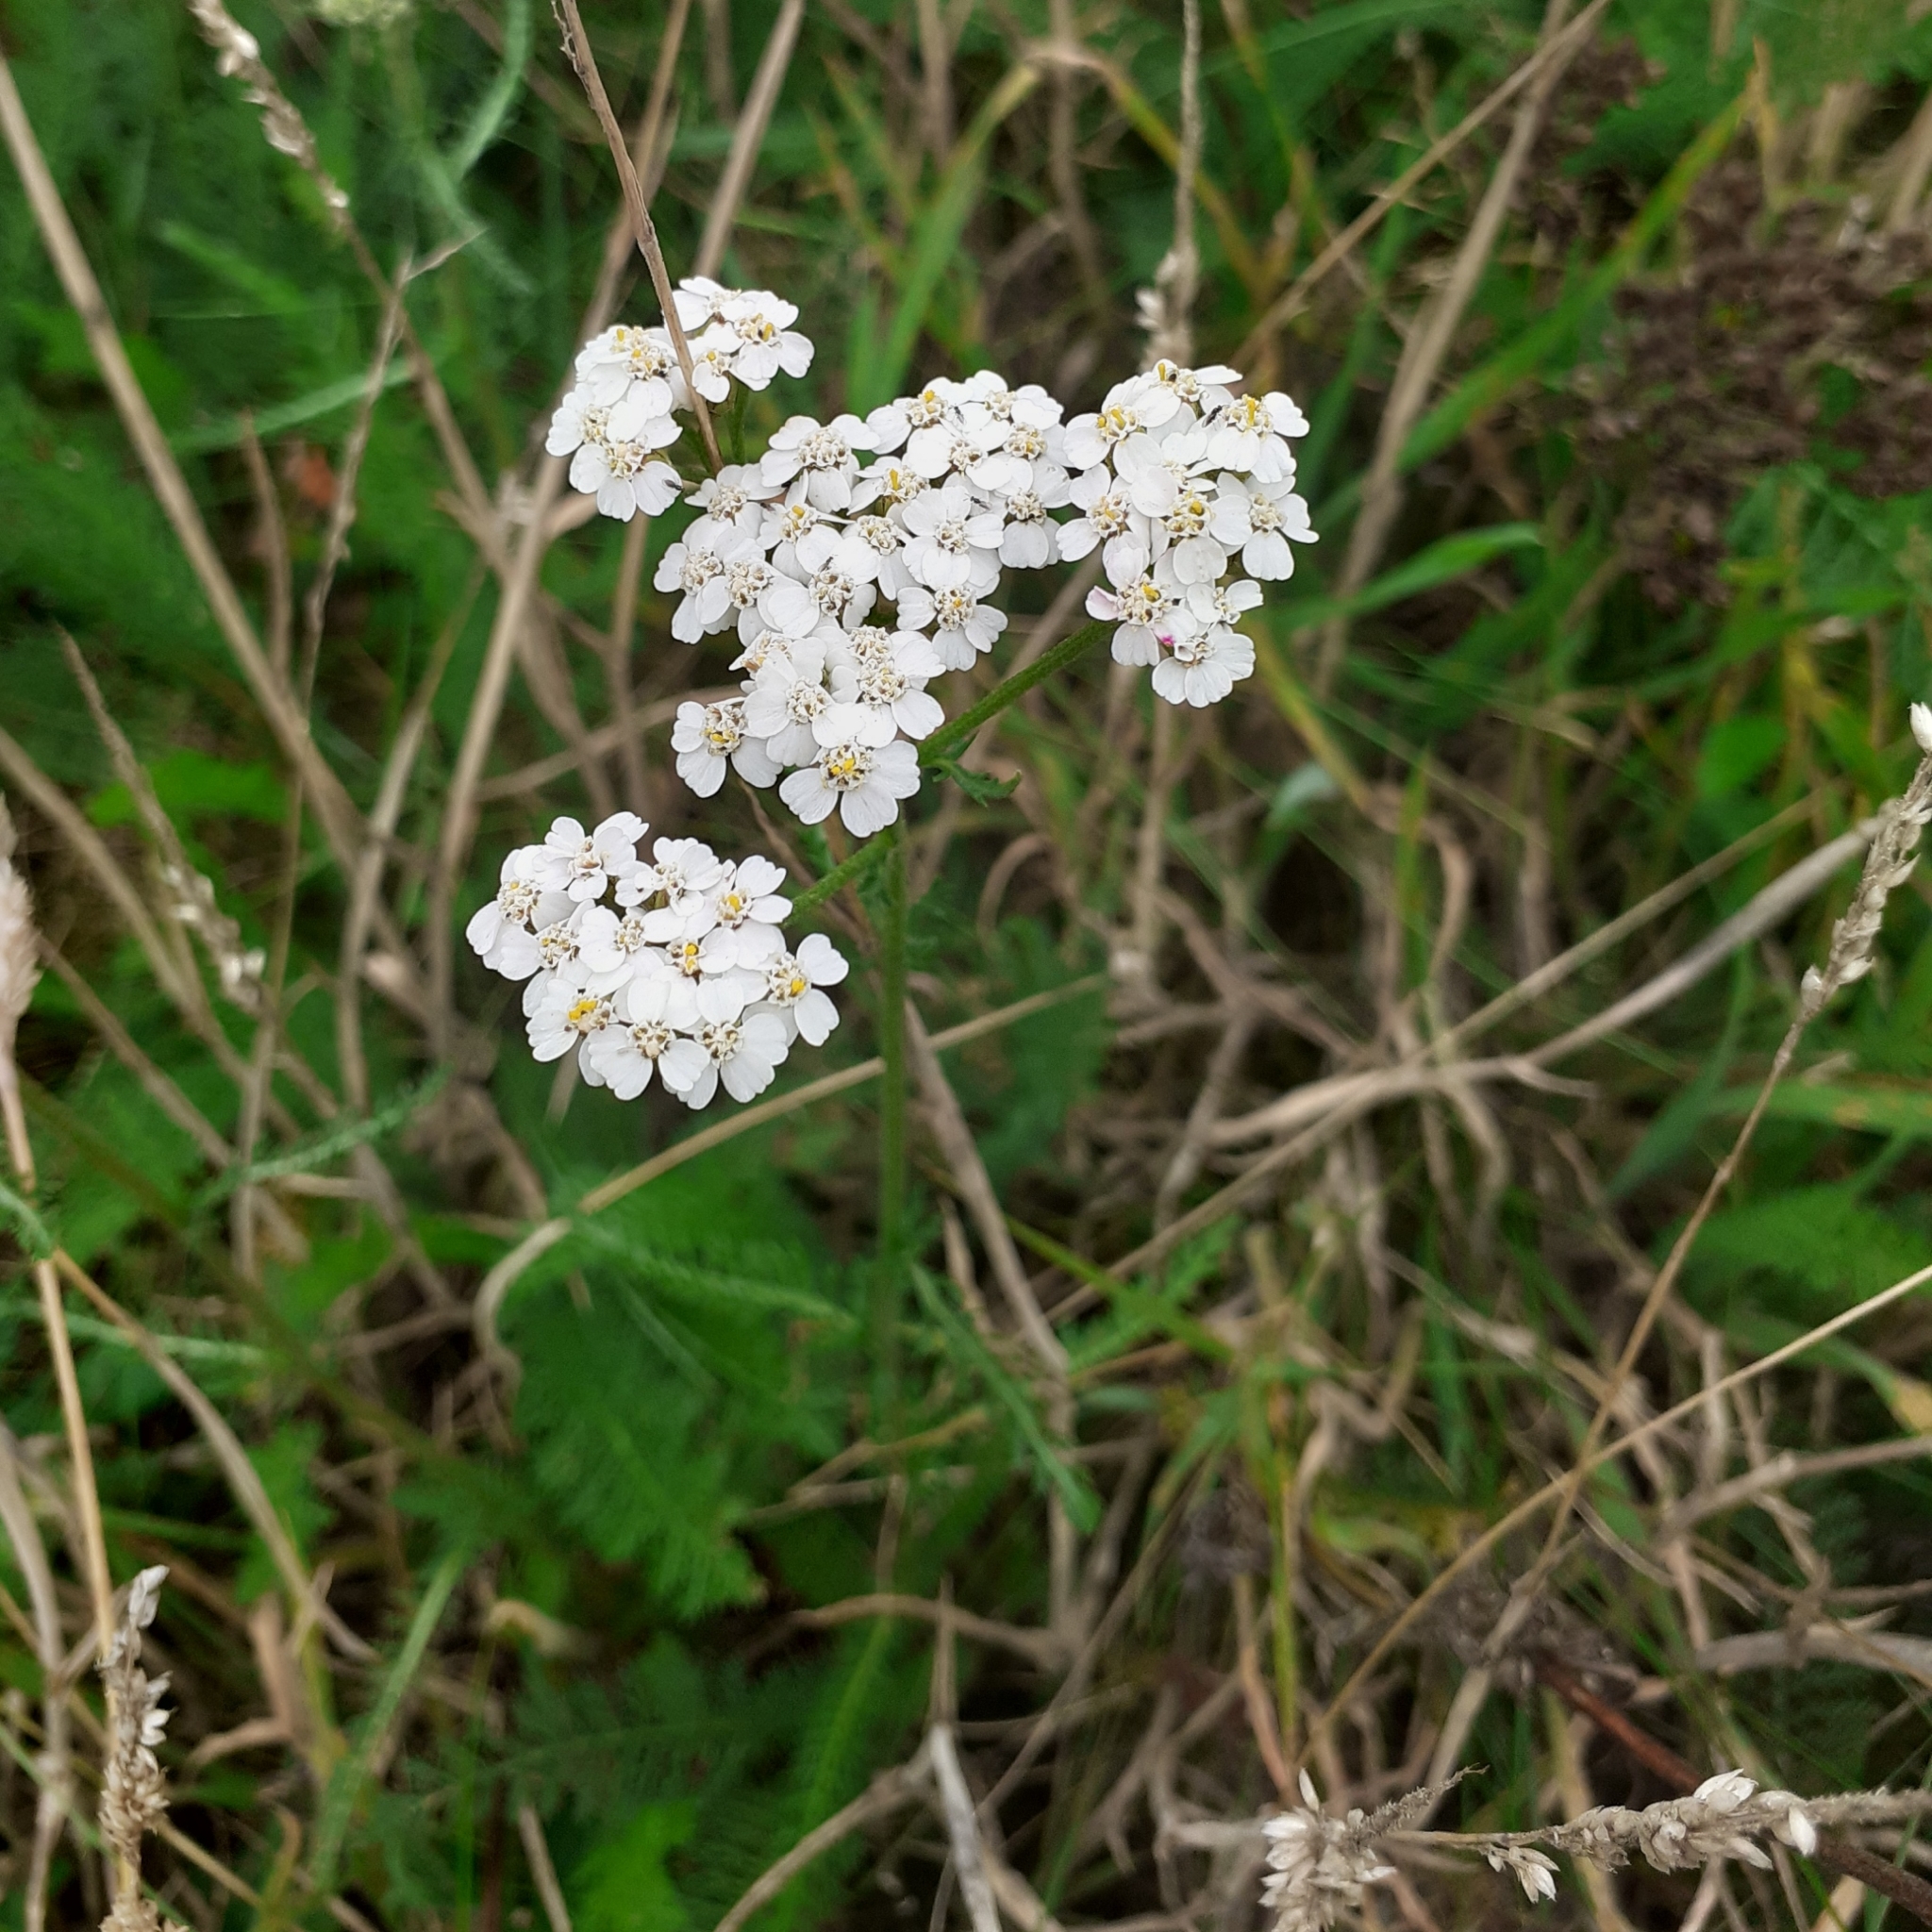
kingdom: Plantae
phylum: Tracheophyta
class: Magnoliopsida
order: Asterales
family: Asteraceae
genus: Achillea
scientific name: Achillea millefolium
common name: Yarrow
